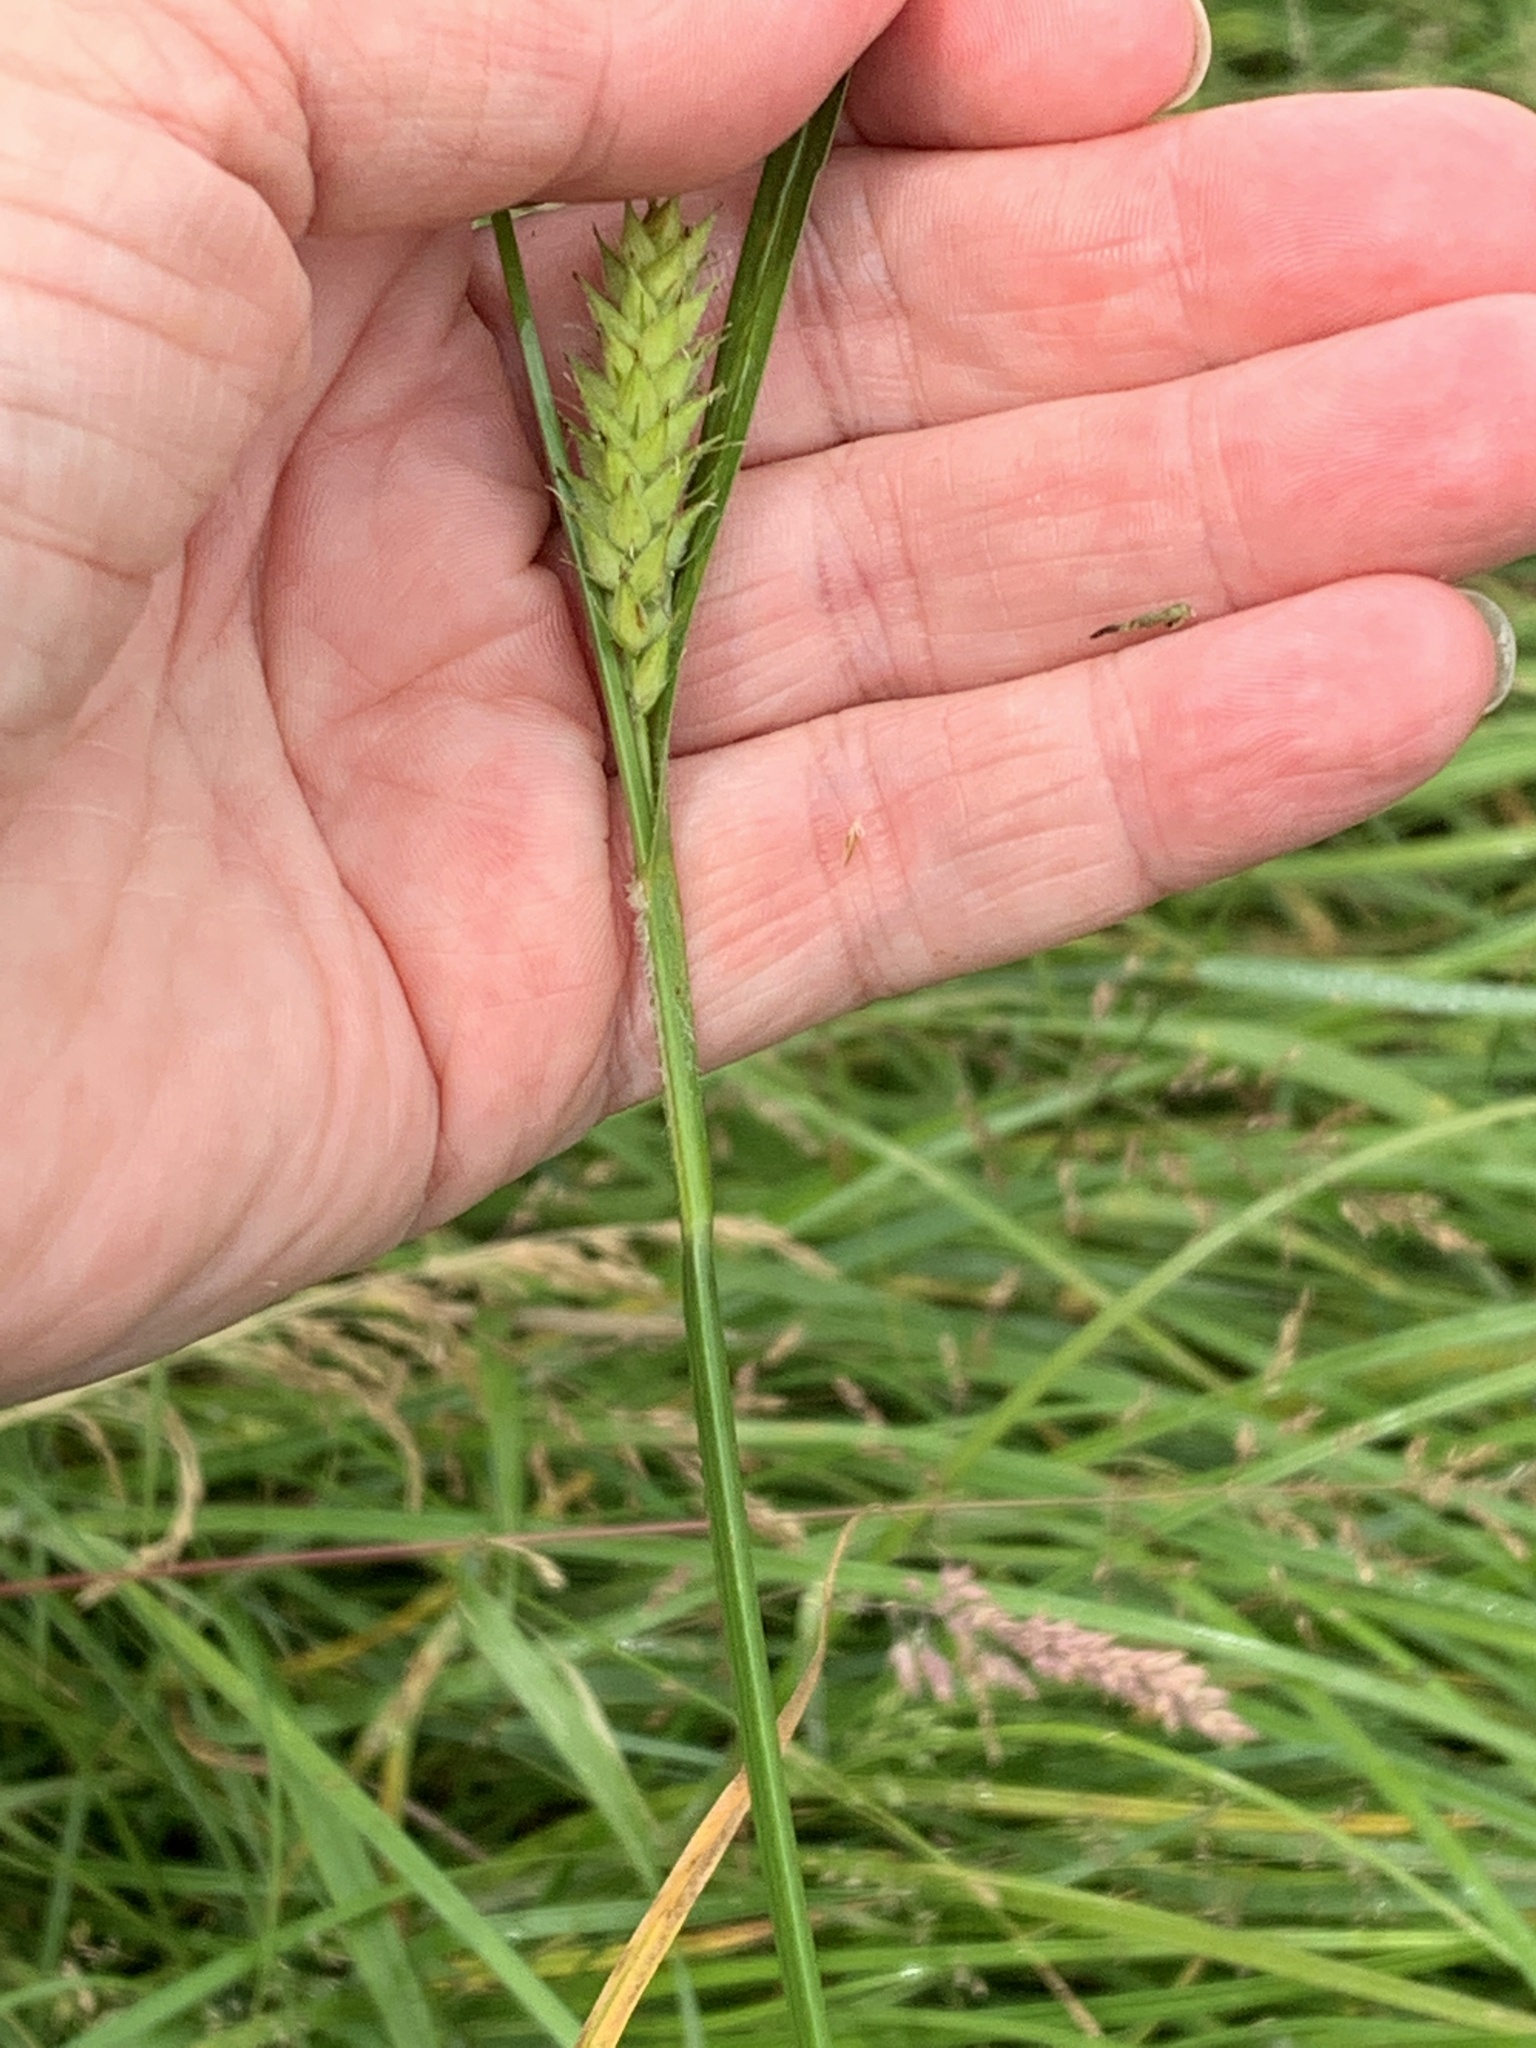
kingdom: Plantae
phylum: Tracheophyta
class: Liliopsida
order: Poales
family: Cyperaceae
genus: Carex
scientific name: Carex hirta
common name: Hairy sedge
